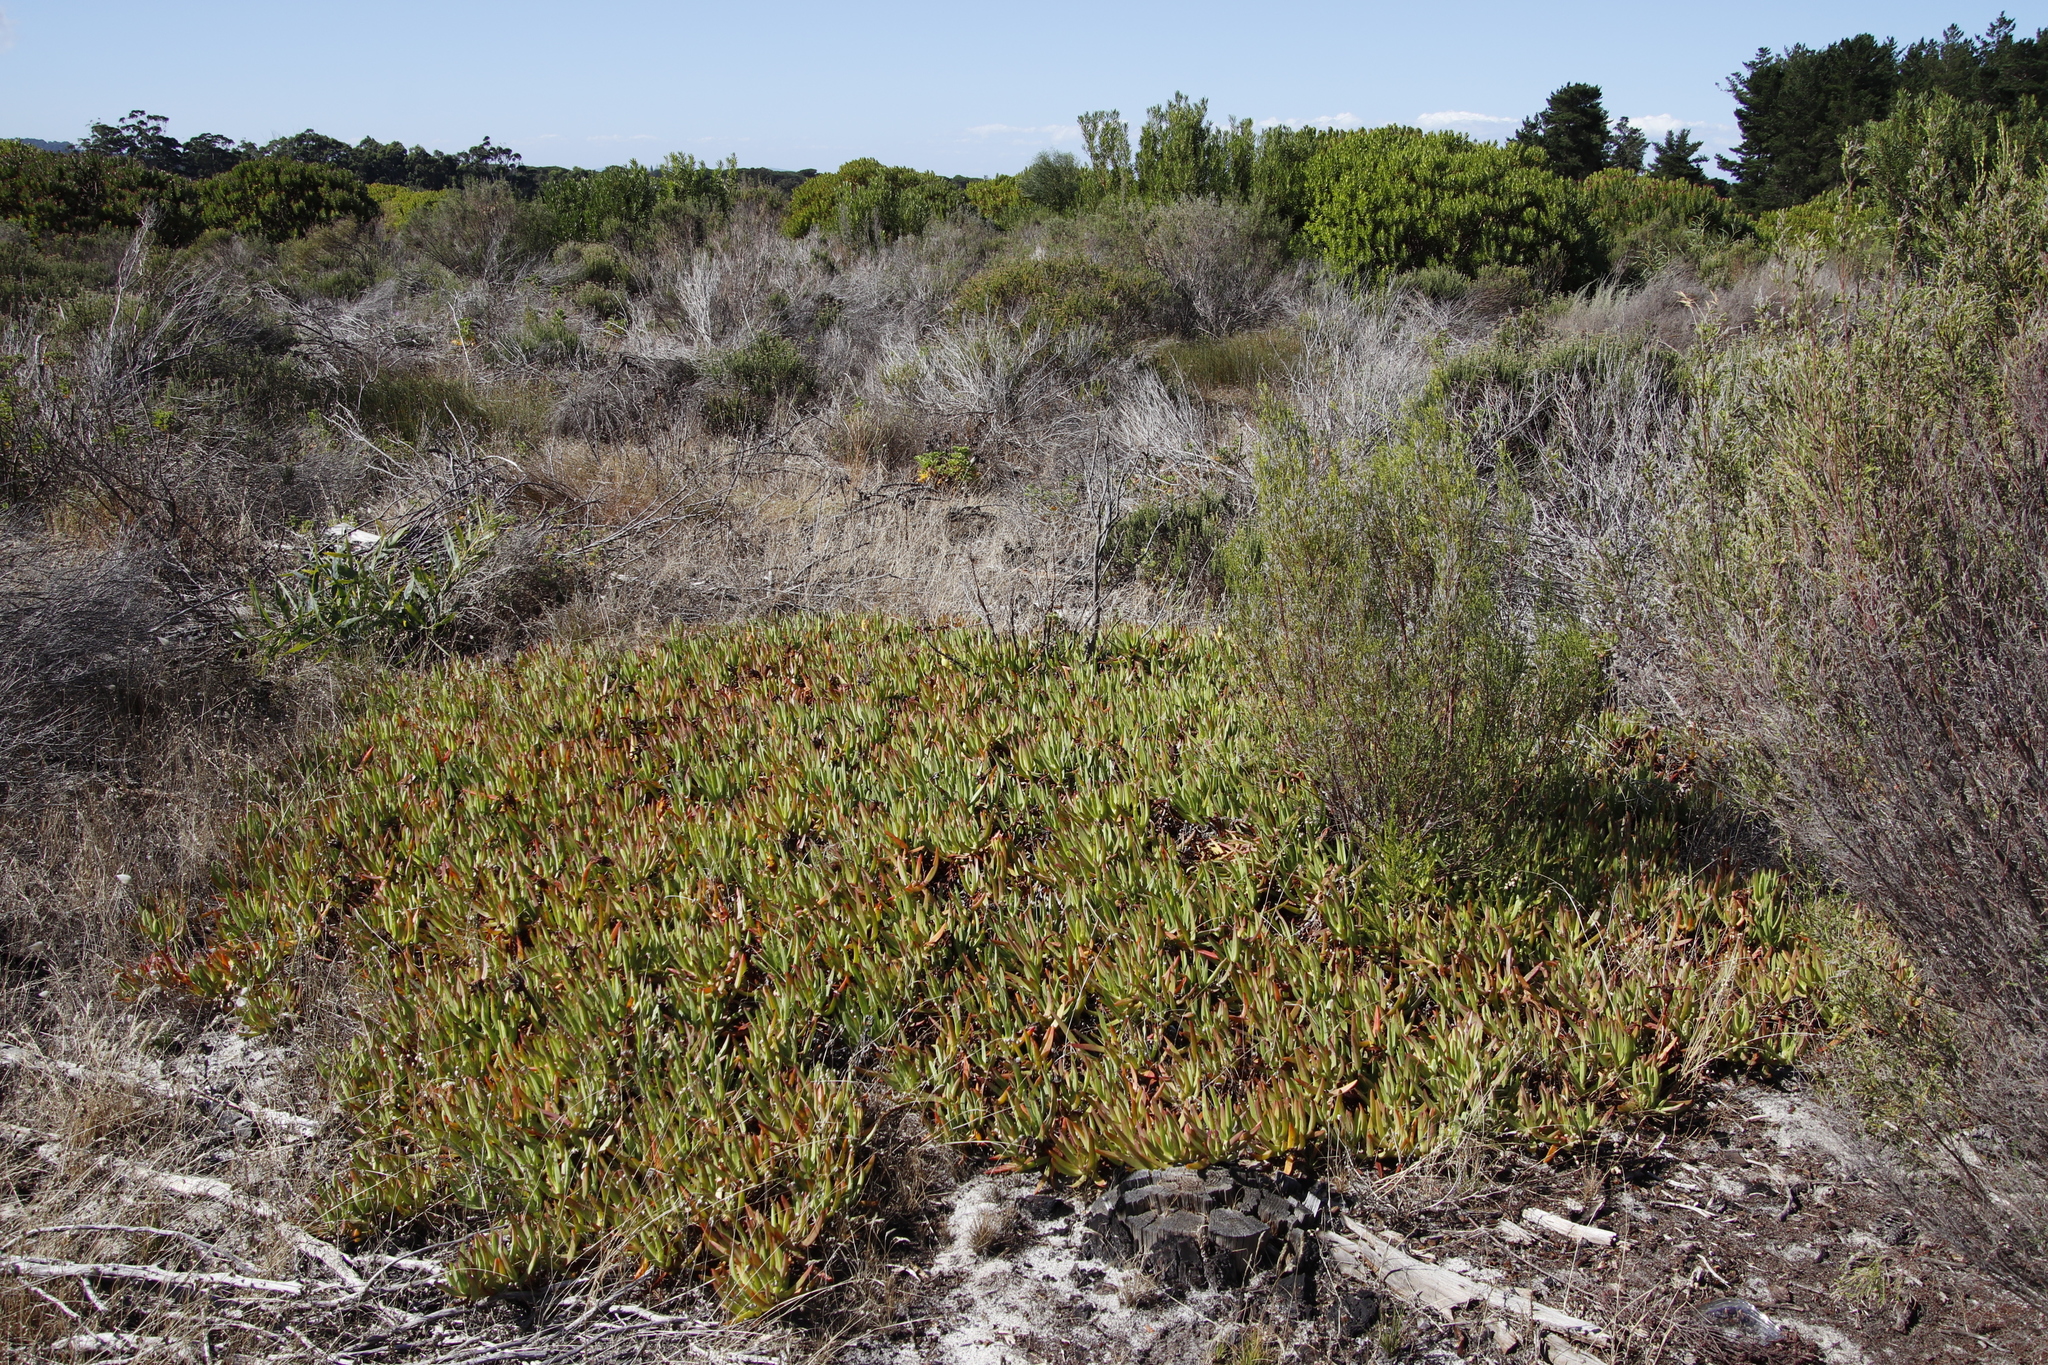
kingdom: Plantae
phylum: Tracheophyta
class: Magnoliopsida
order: Caryophyllales
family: Aizoaceae
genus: Carpobrotus
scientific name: Carpobrotus edulis
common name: Hottentot-fig
